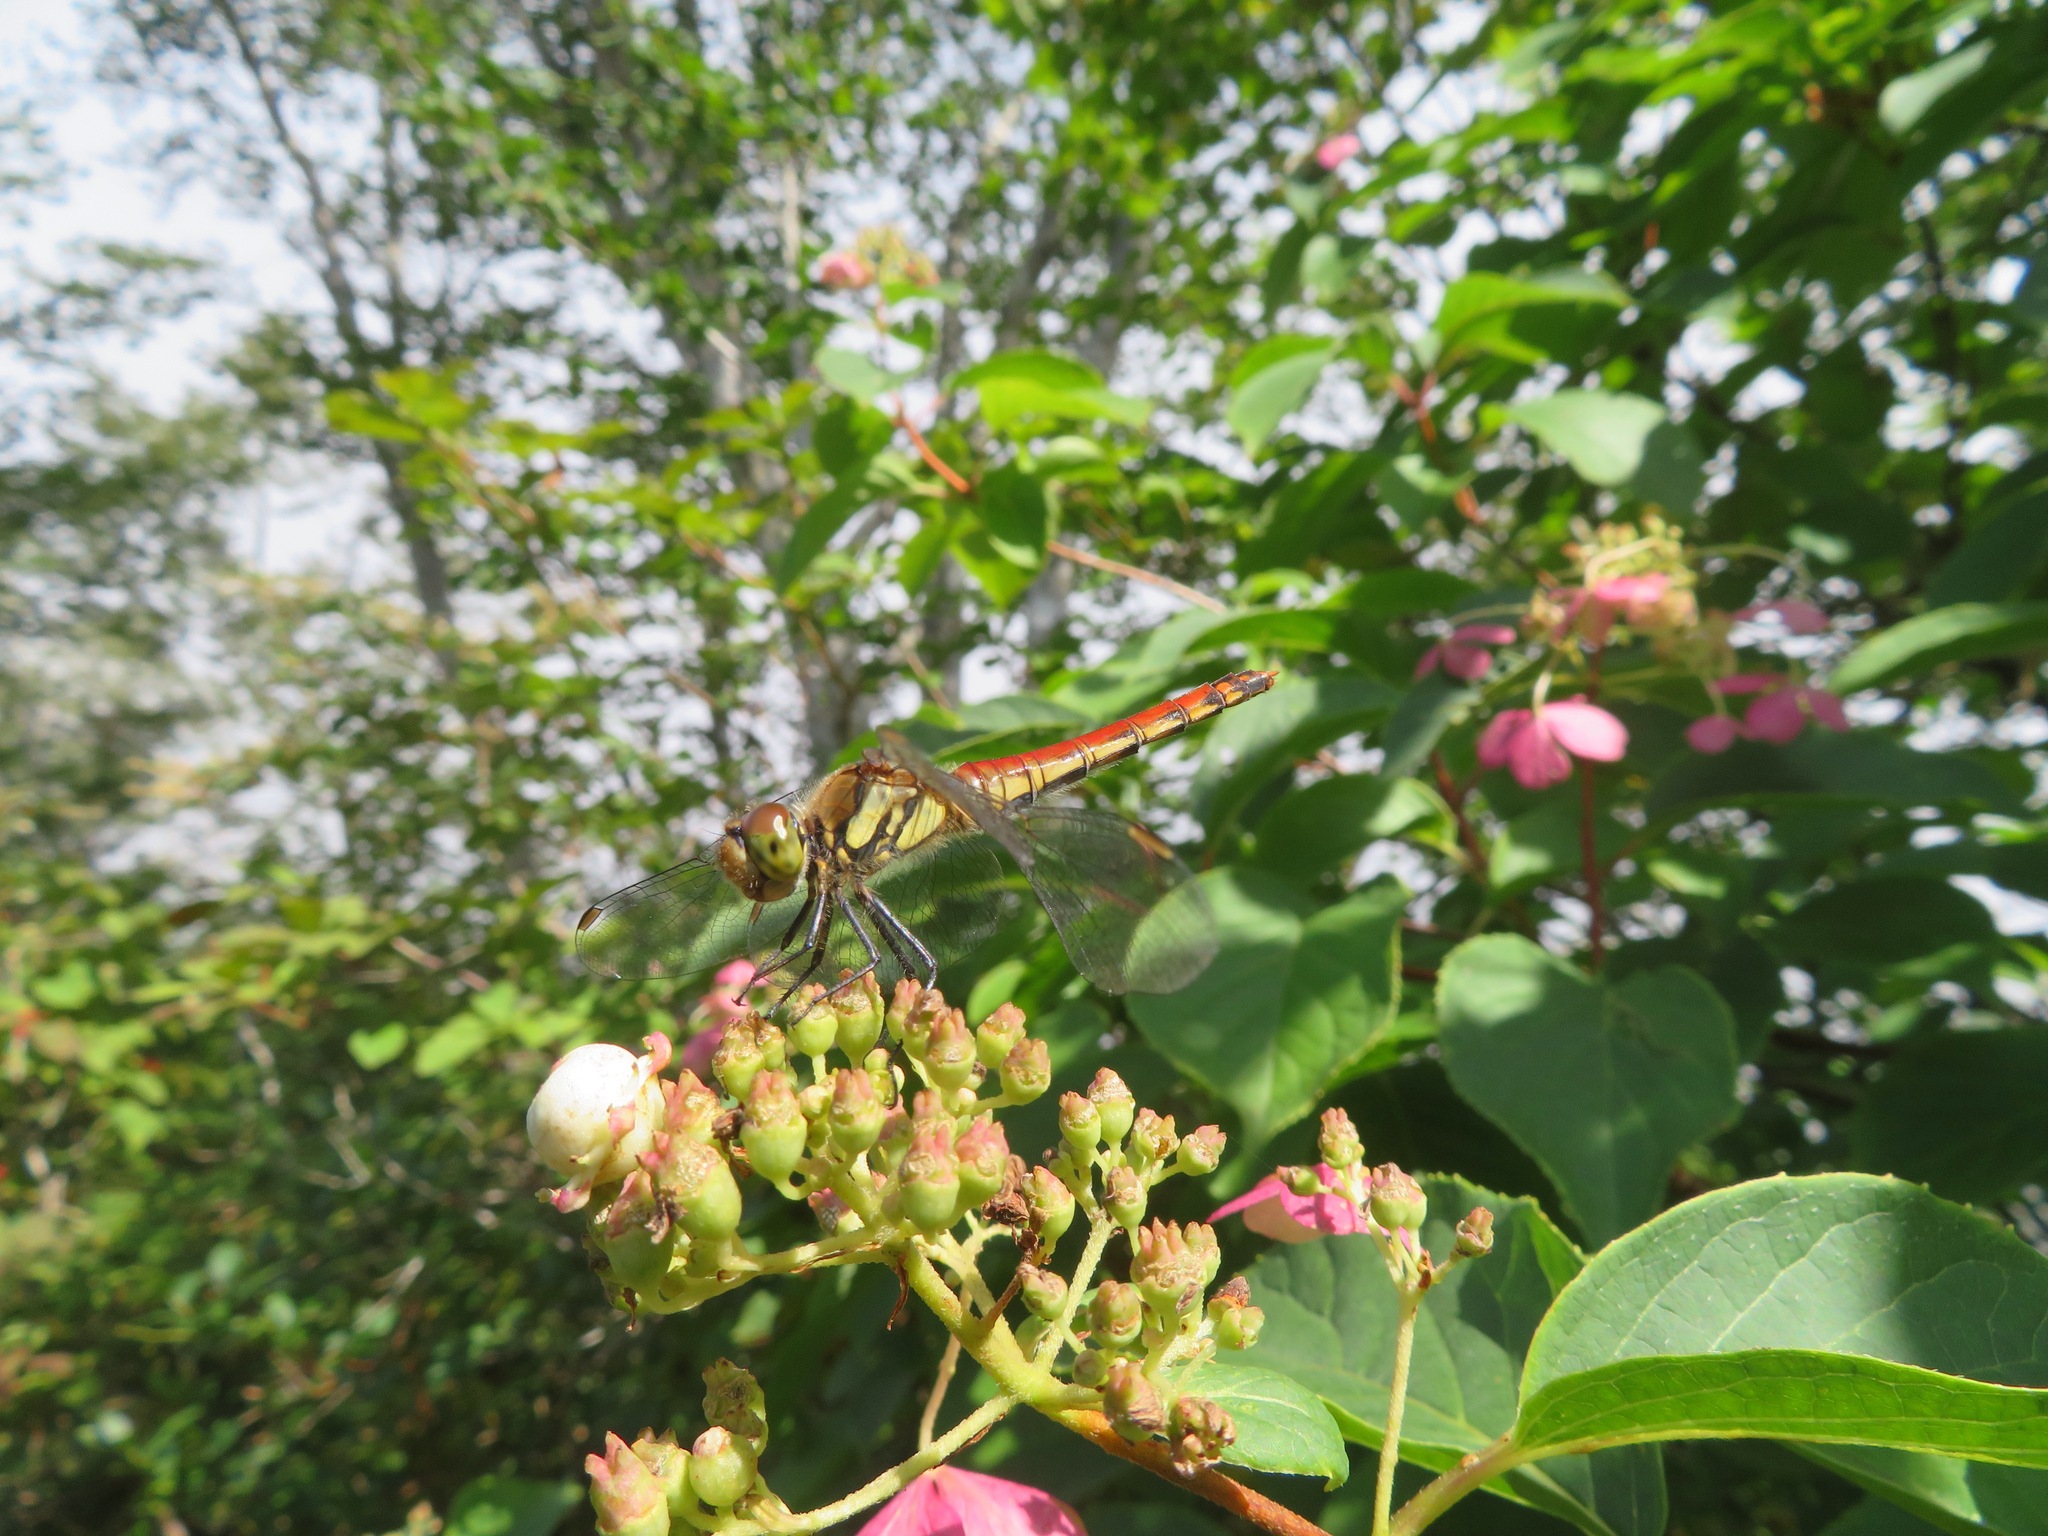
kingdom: Animalia
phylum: Arthropoda
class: Insecta
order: Odonata
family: Libellulidae
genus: Sympetrum
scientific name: Sympetrum frequens
